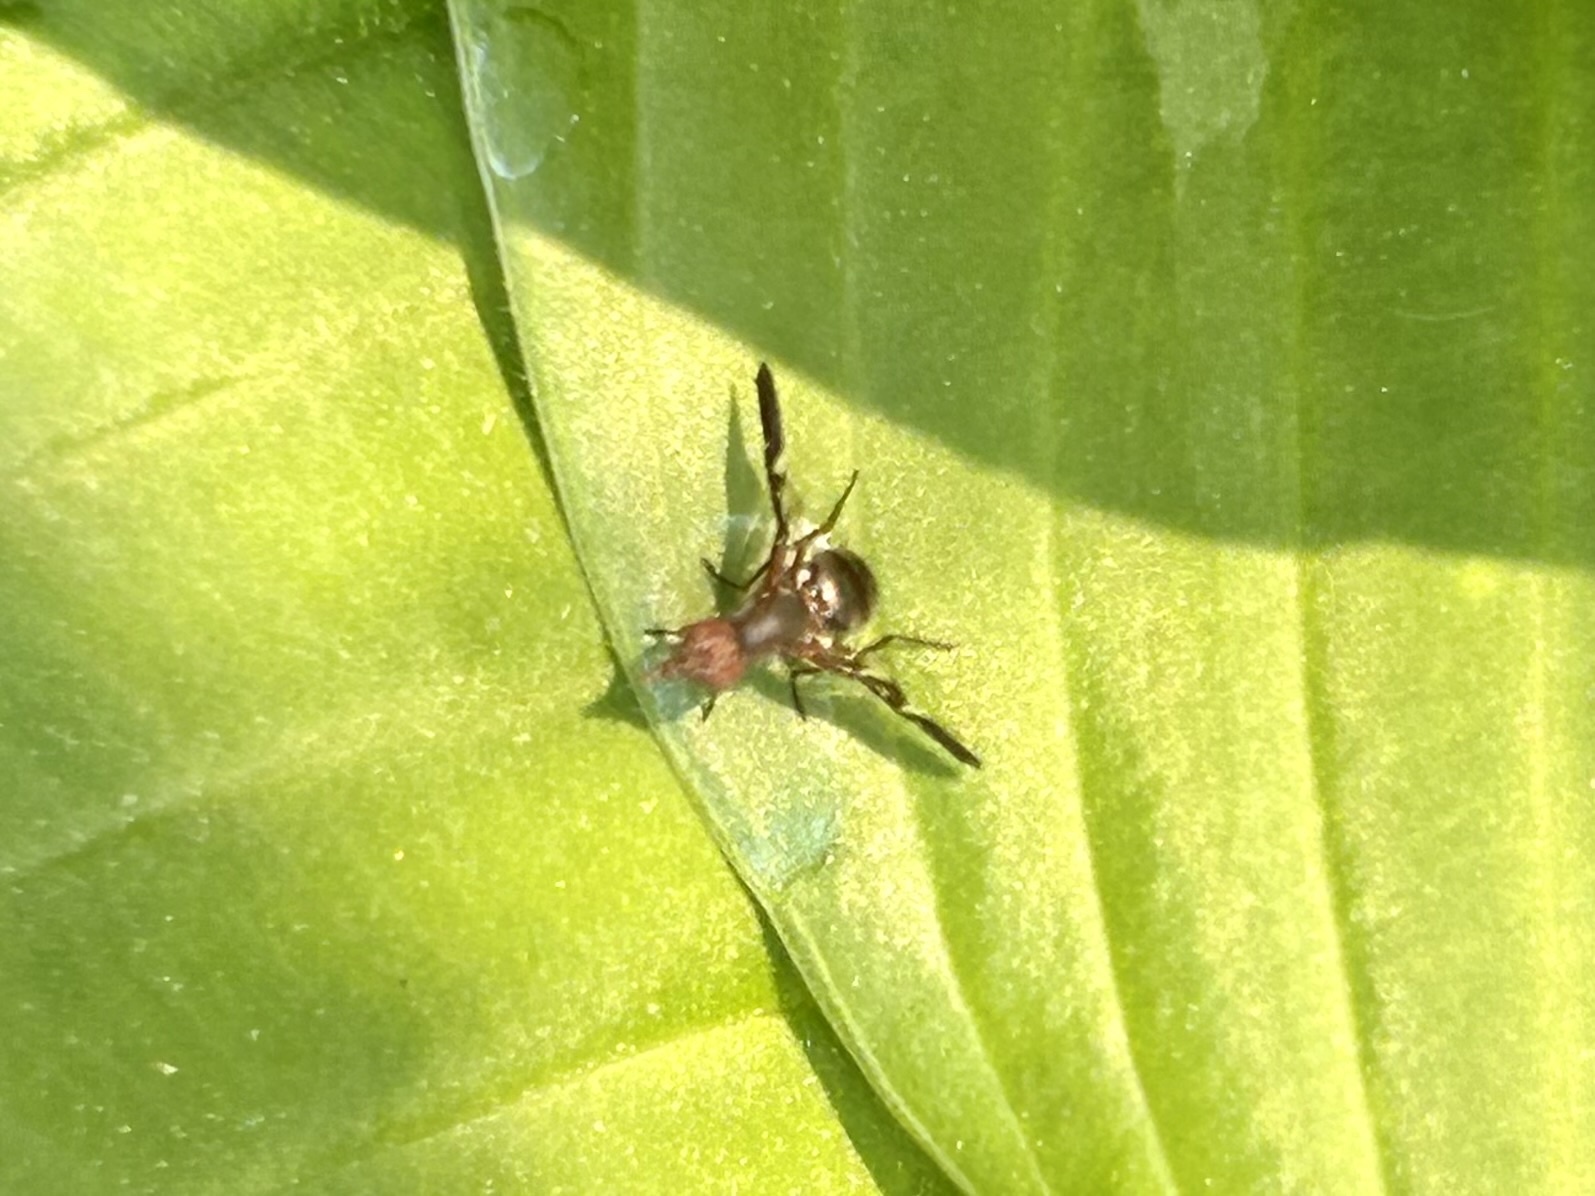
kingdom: Animalia
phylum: Arthropoda
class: Insecta
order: Diptera
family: Ulidiidae
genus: Delphinia
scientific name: Delphinia picta
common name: Common picture-winged fly
